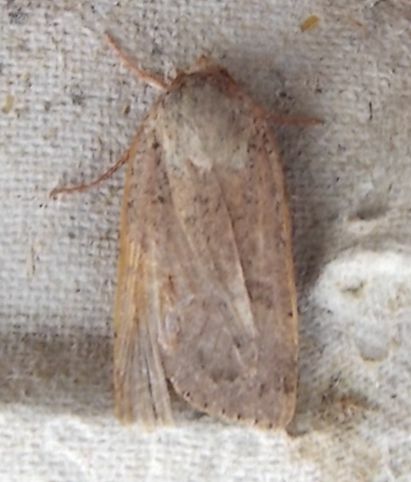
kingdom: Animalia
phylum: Arthropoda
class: Insecta
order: Lepidoptera
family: Noctuidae
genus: Noctua
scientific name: Noctua comes
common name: Lesser yellow underwing
